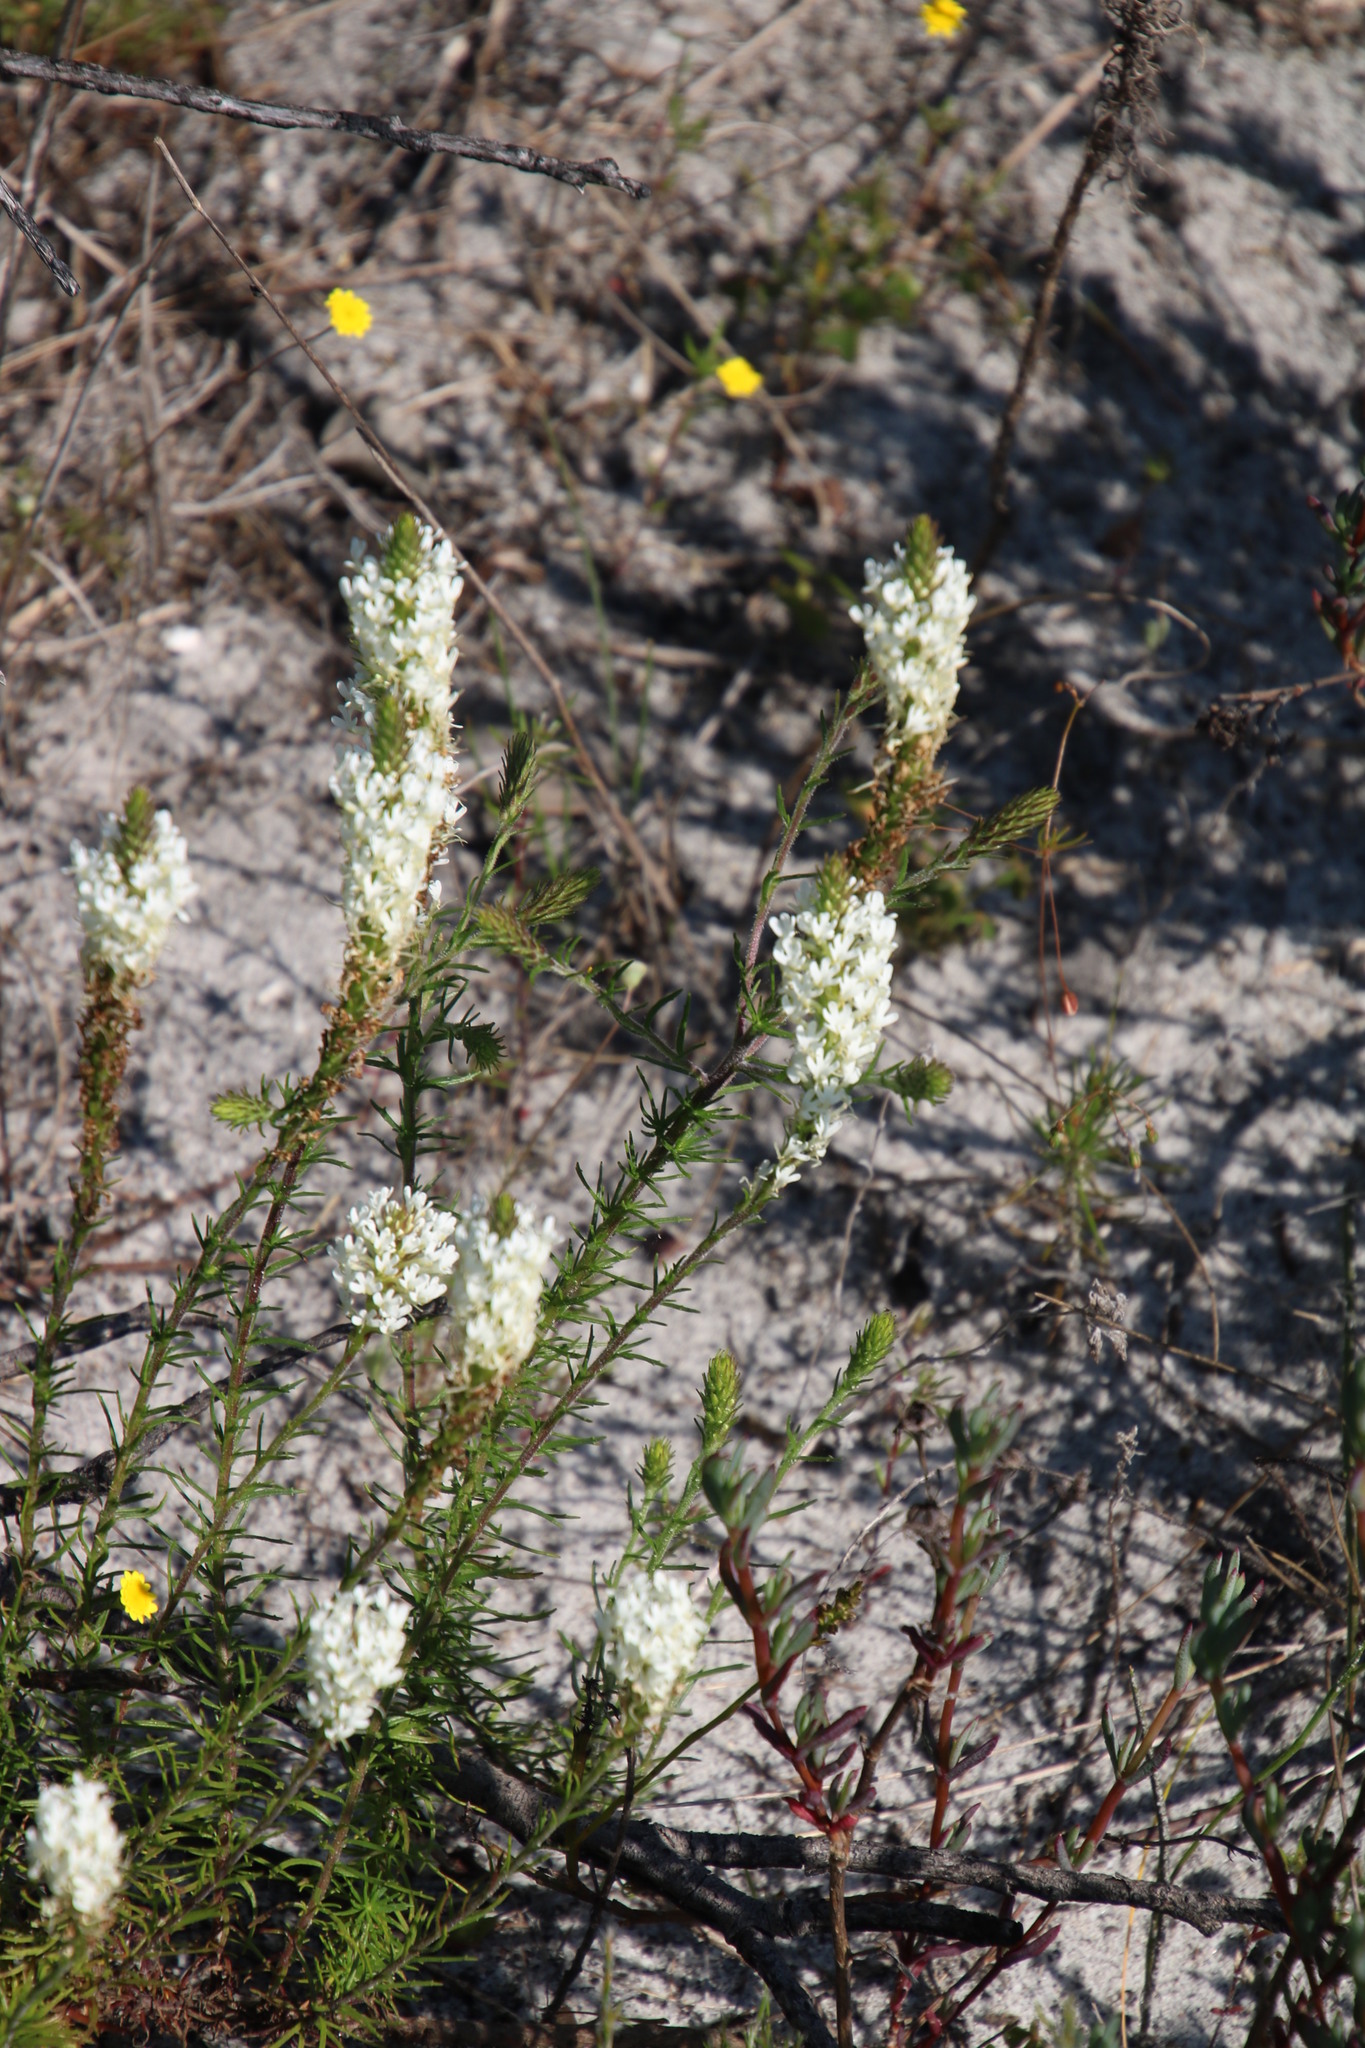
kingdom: Plantae
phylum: Tracheophyta
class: Magnoliopsida
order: Lamiales
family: Scrophulariaceae
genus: Dischisma
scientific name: Dischisma ciliatum
